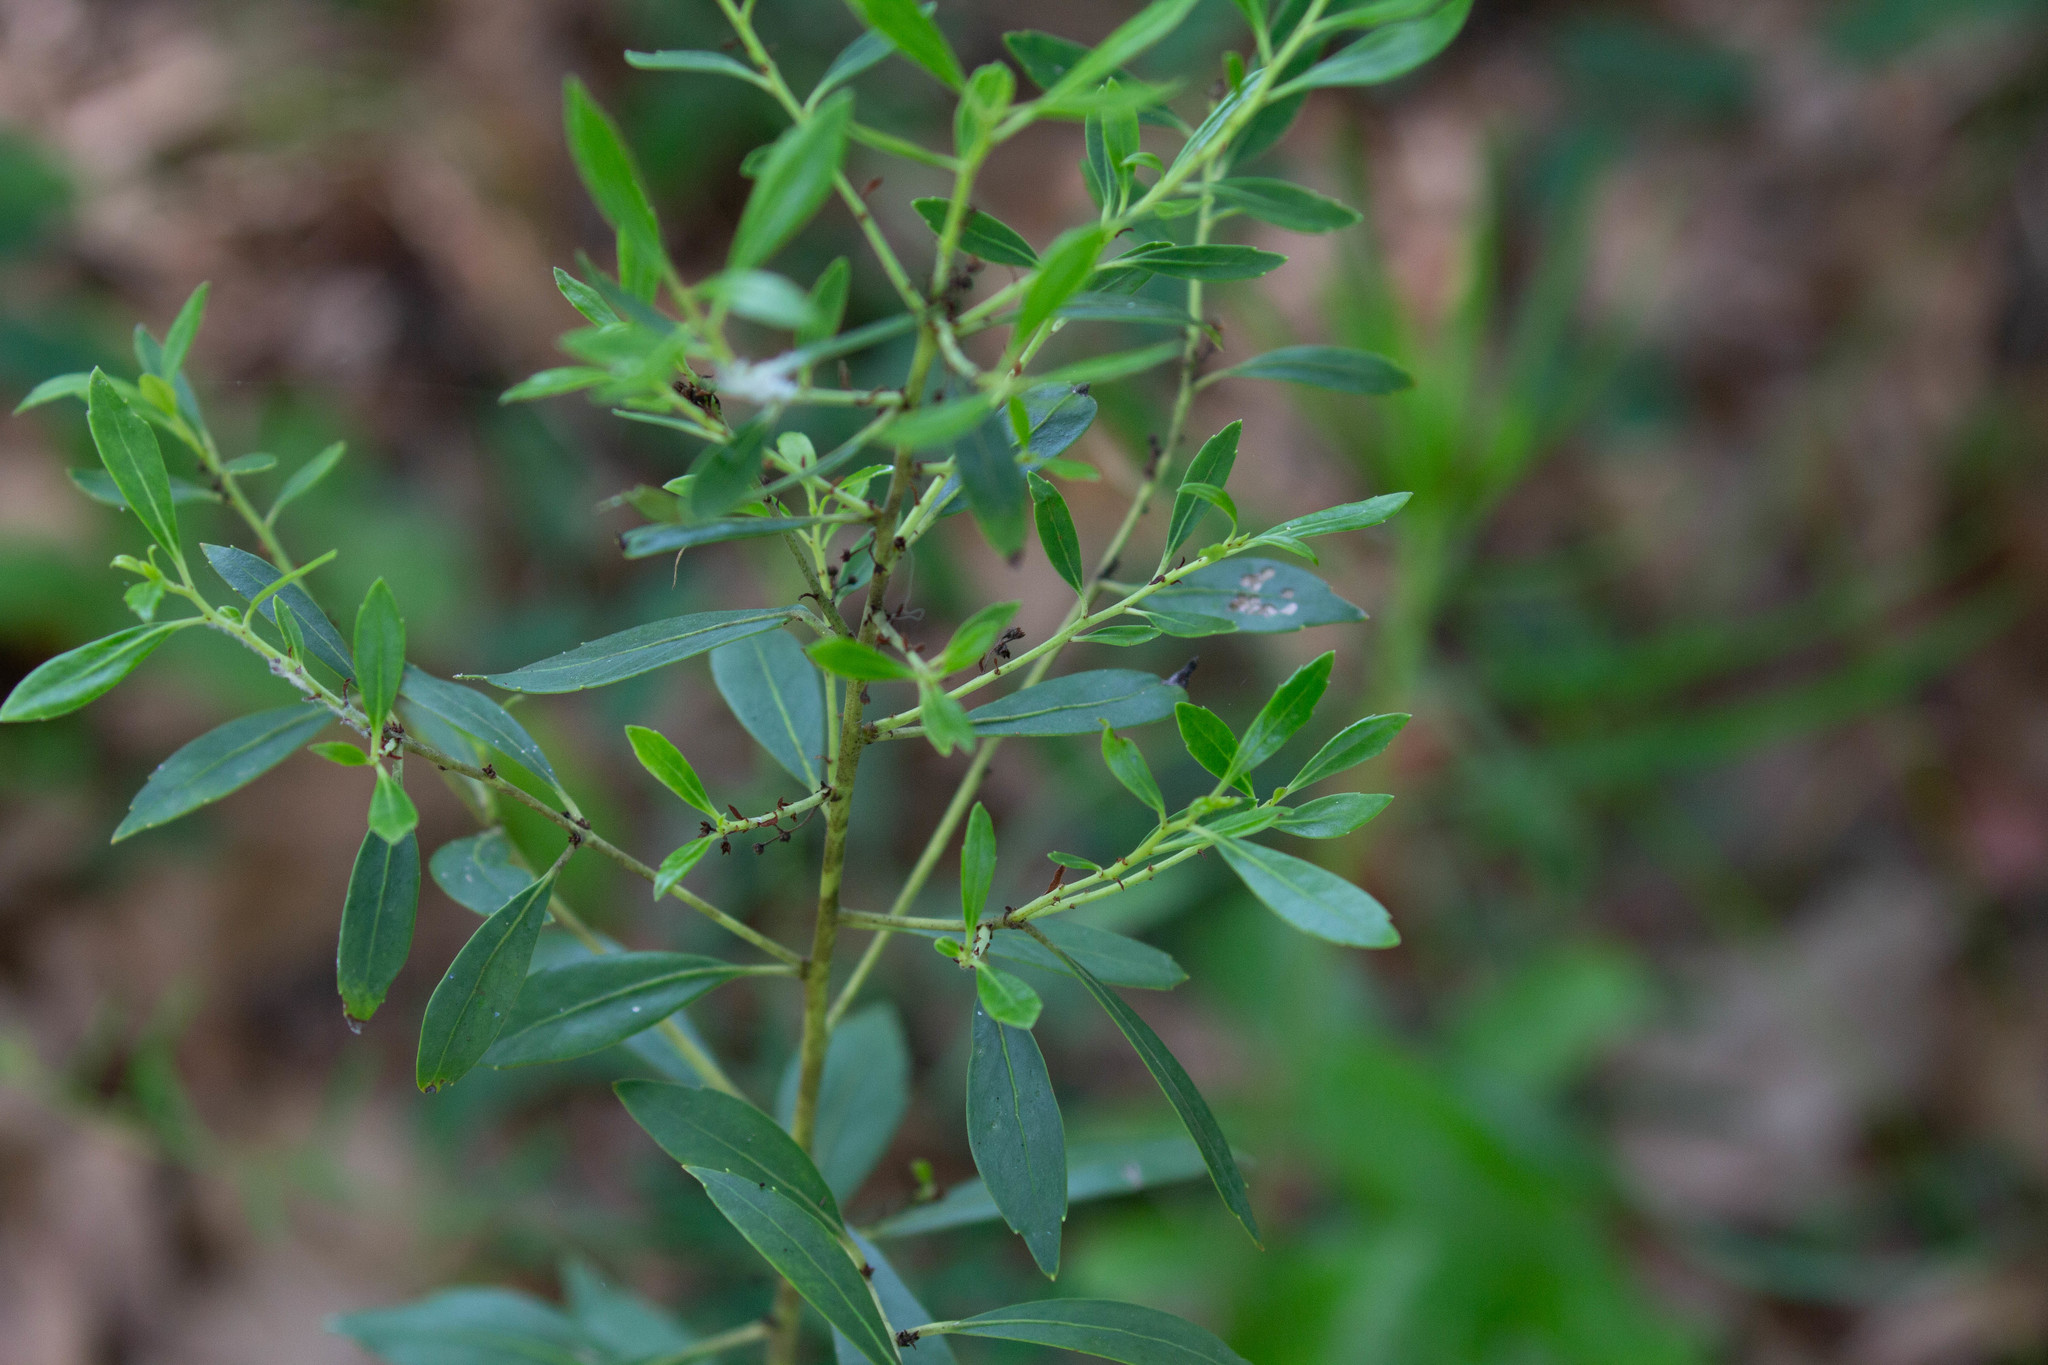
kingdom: Plantae
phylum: Tracheophyta
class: Magnoliopsida
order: Aquifoliales
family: Aquifoliaceae
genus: Ilex
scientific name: Ilex glabra
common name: Bitter gallberry
